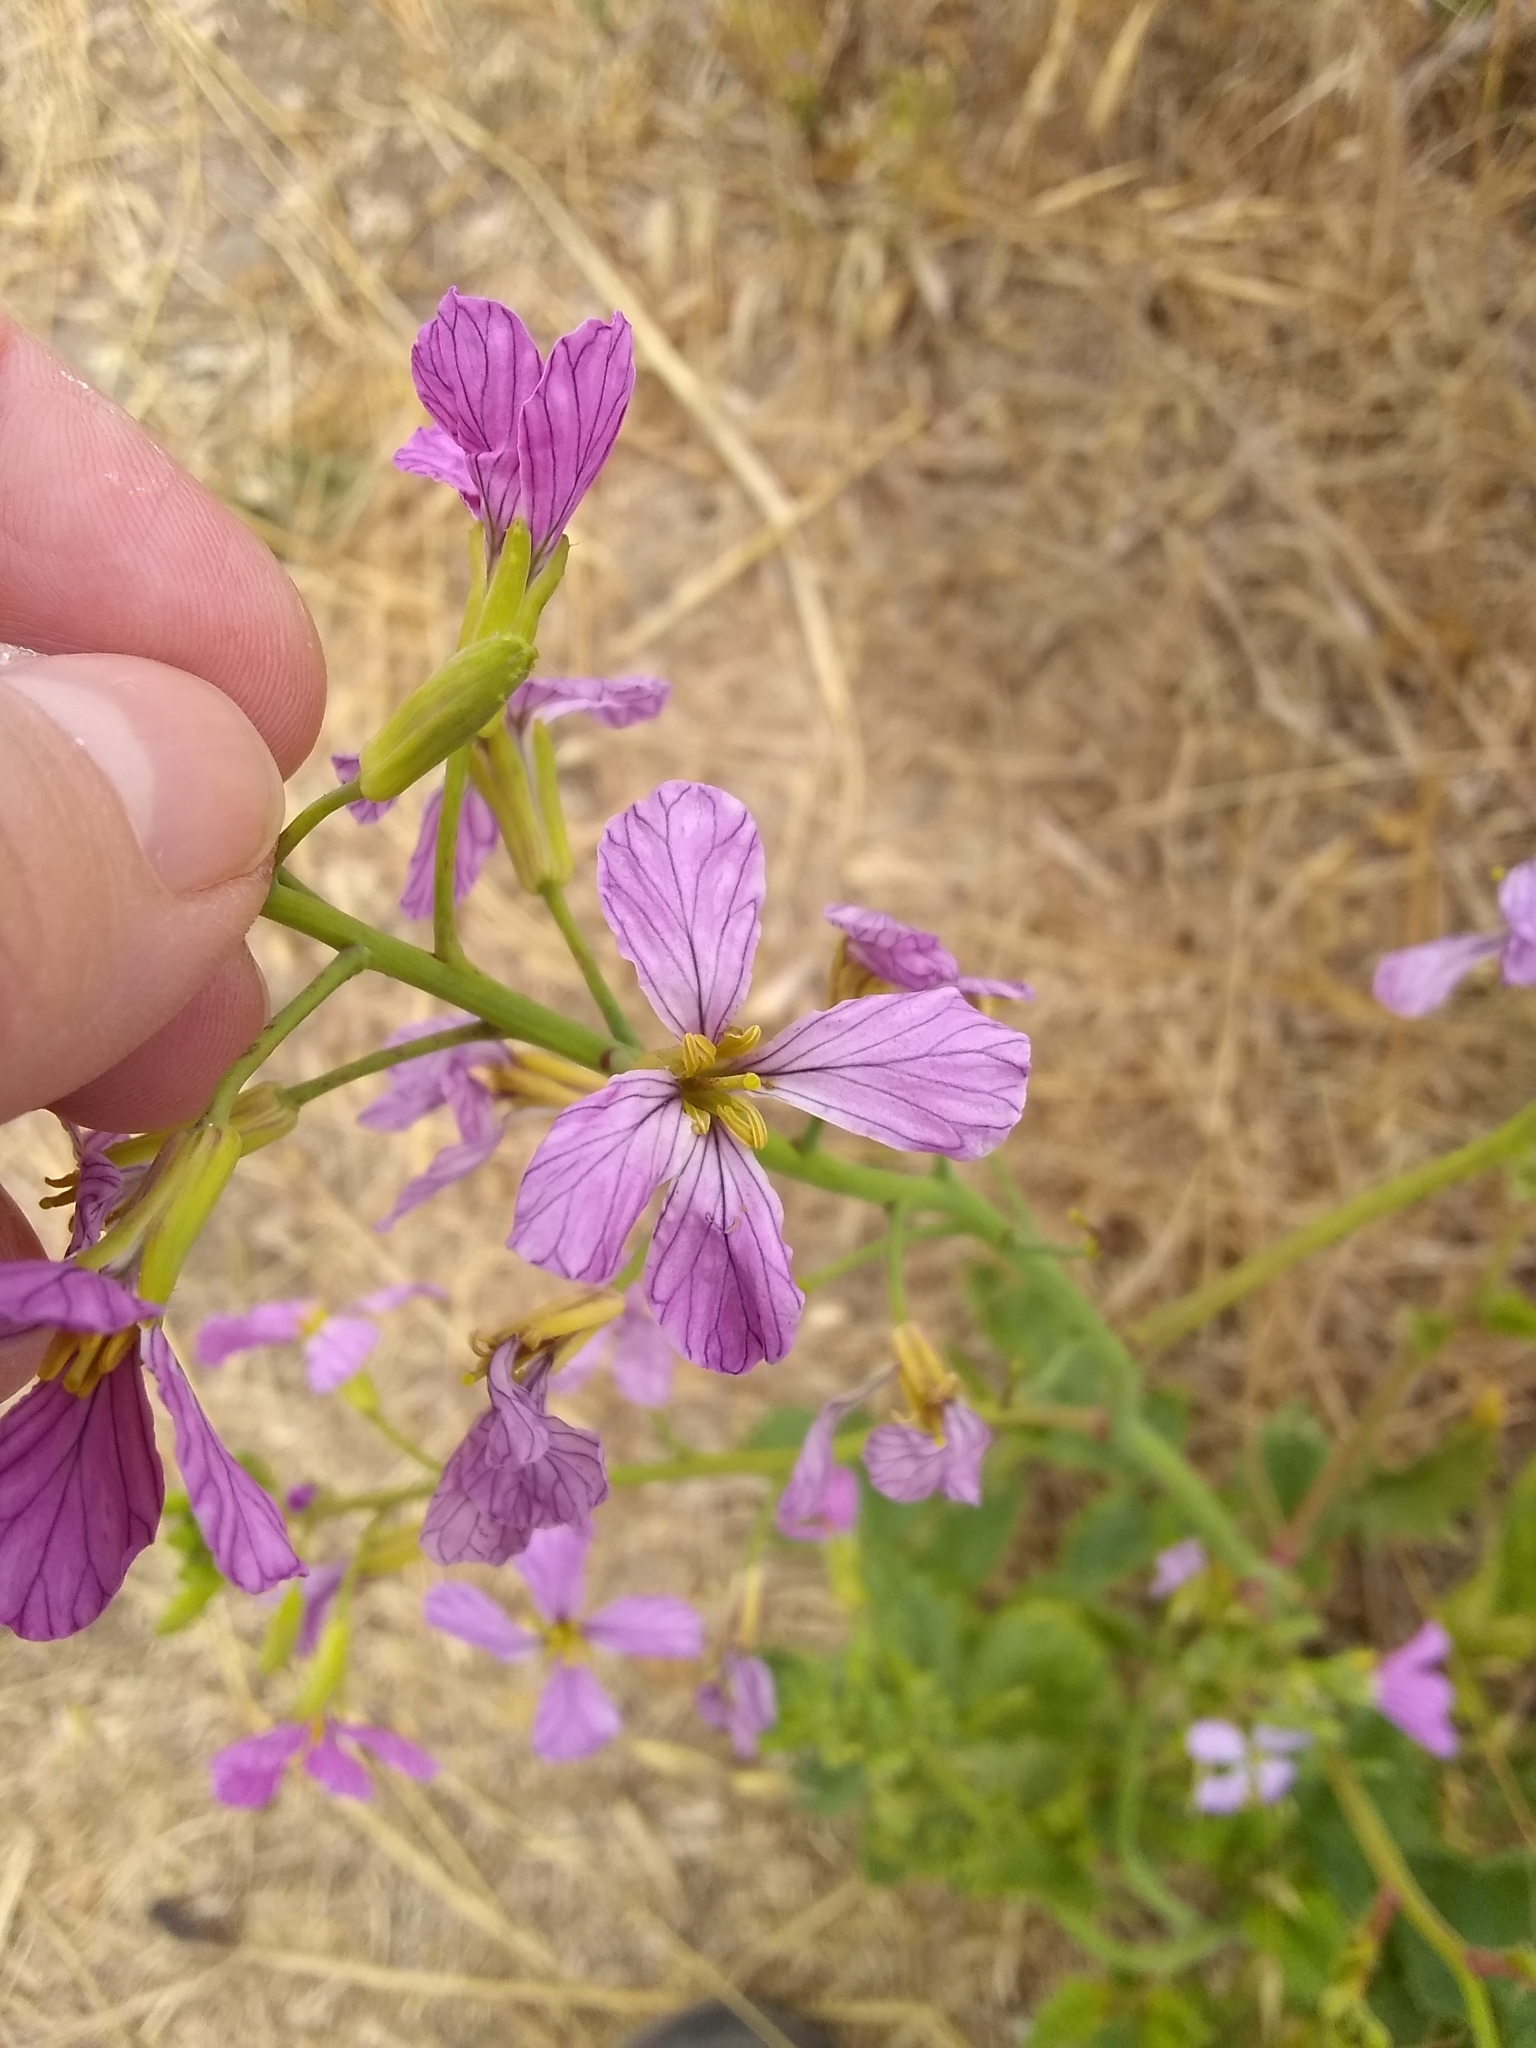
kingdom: Plantae
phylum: Tracheophyta
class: Magnoliopsida
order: Brassicales
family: Brassicaceae
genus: Raphanus
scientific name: Raphanus sativus
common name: Cultivated radish
